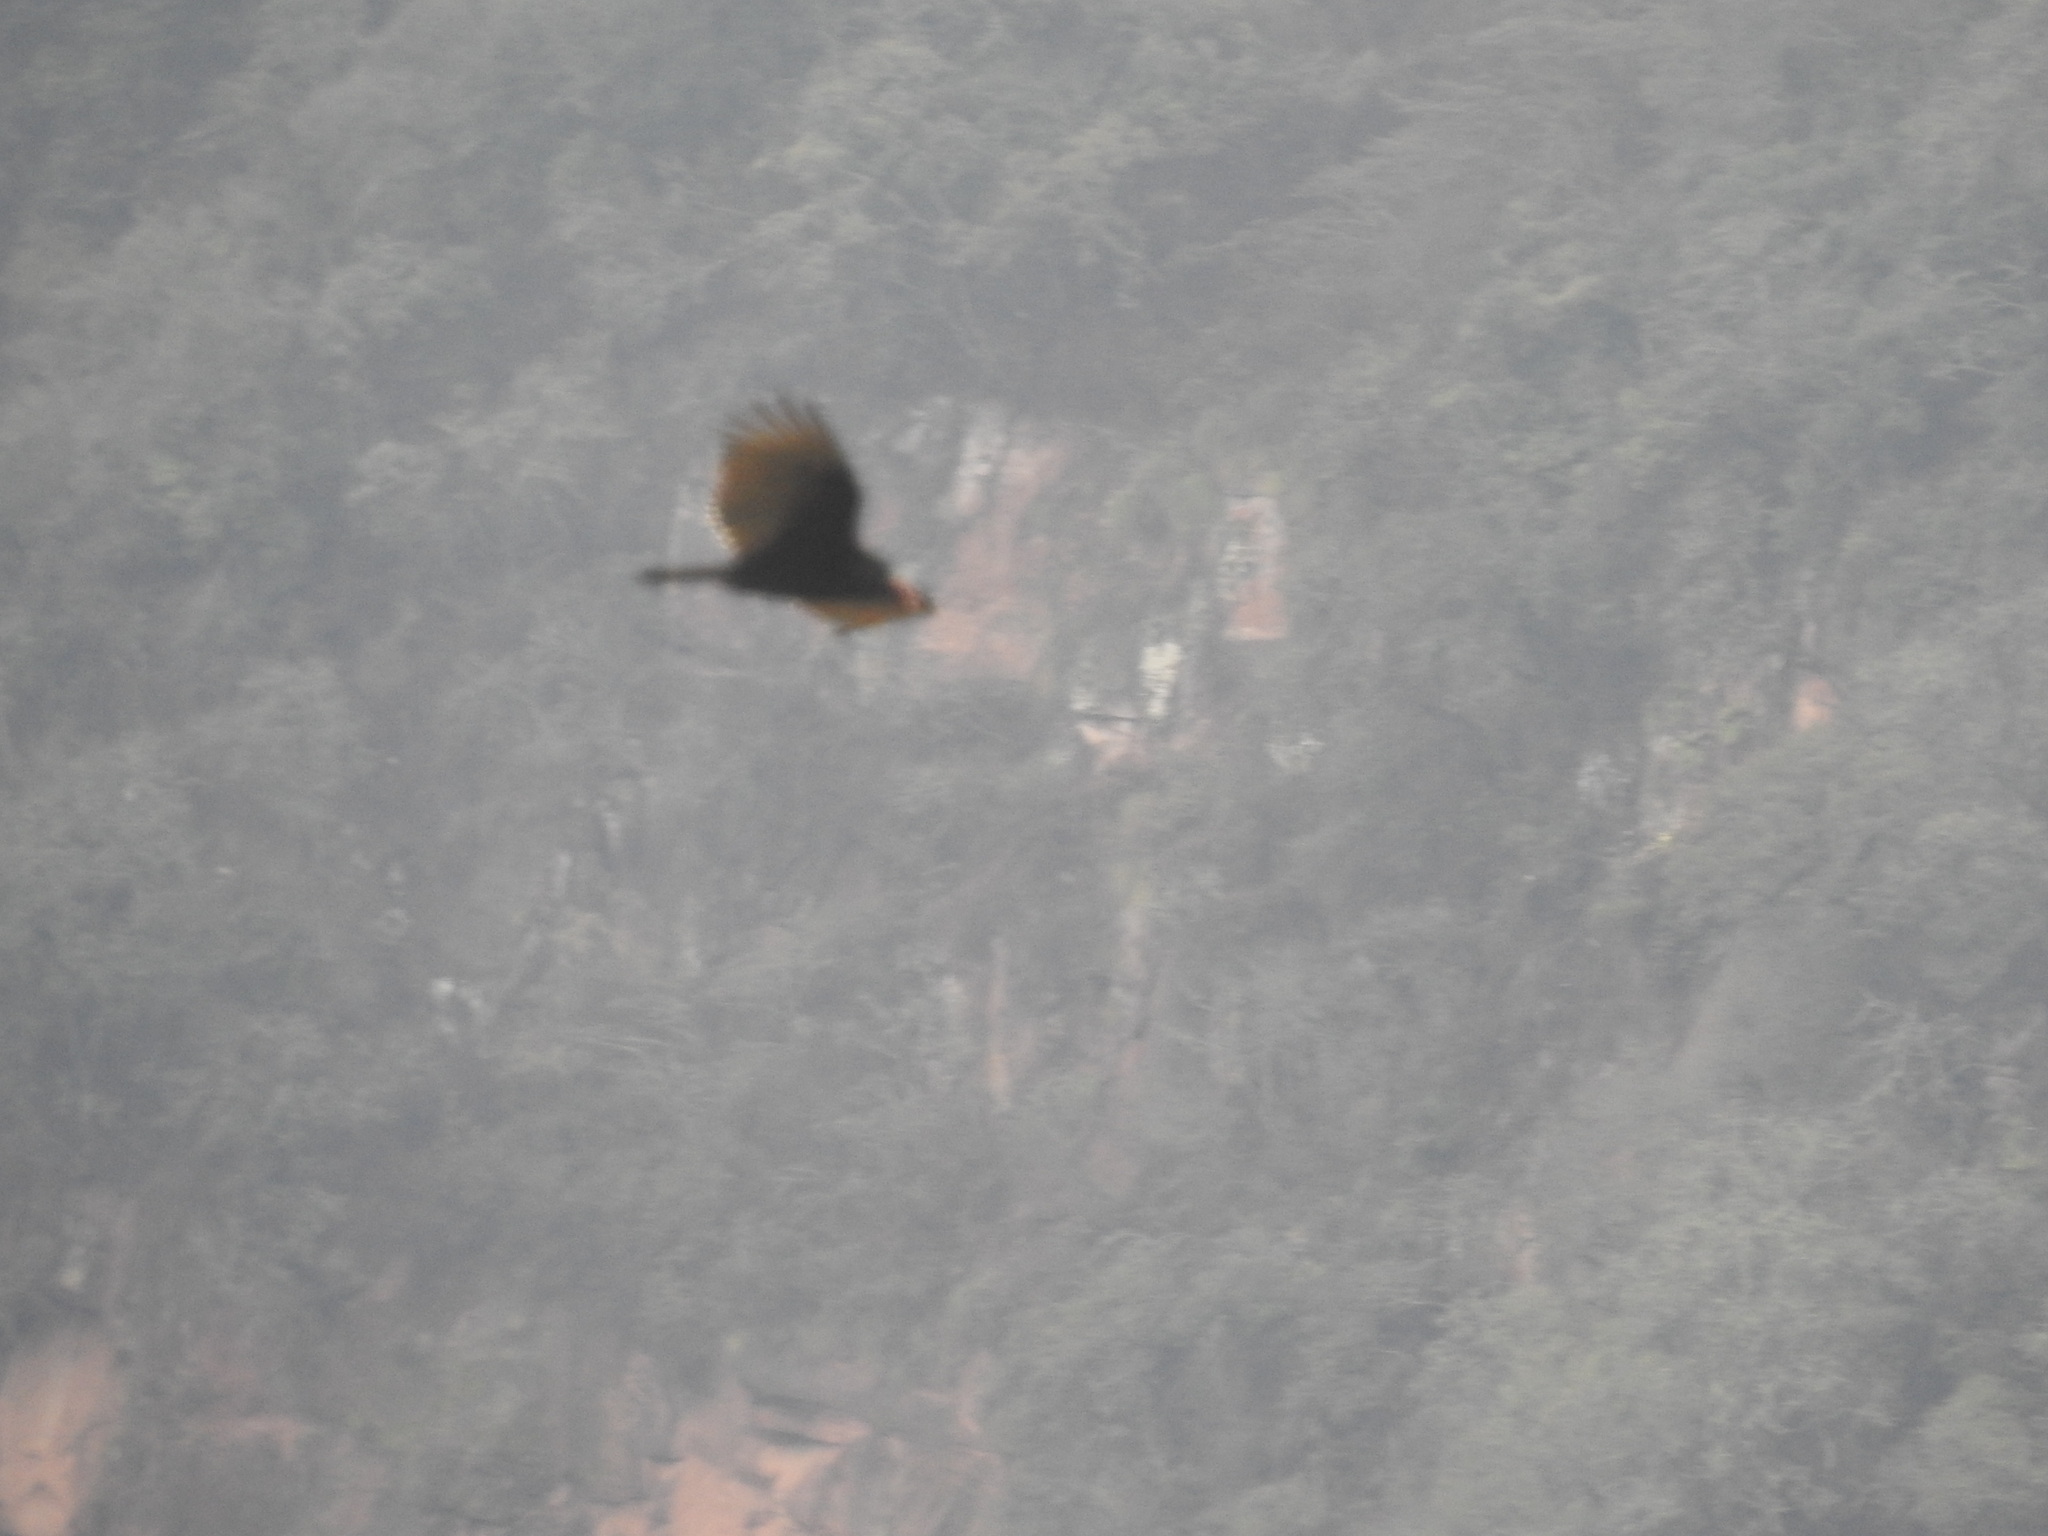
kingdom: Animalia
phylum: Chordata
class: Aves
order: Accipitriformes
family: Cathartidae
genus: Cathartes
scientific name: Cathartes aura
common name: Turkey vulture
